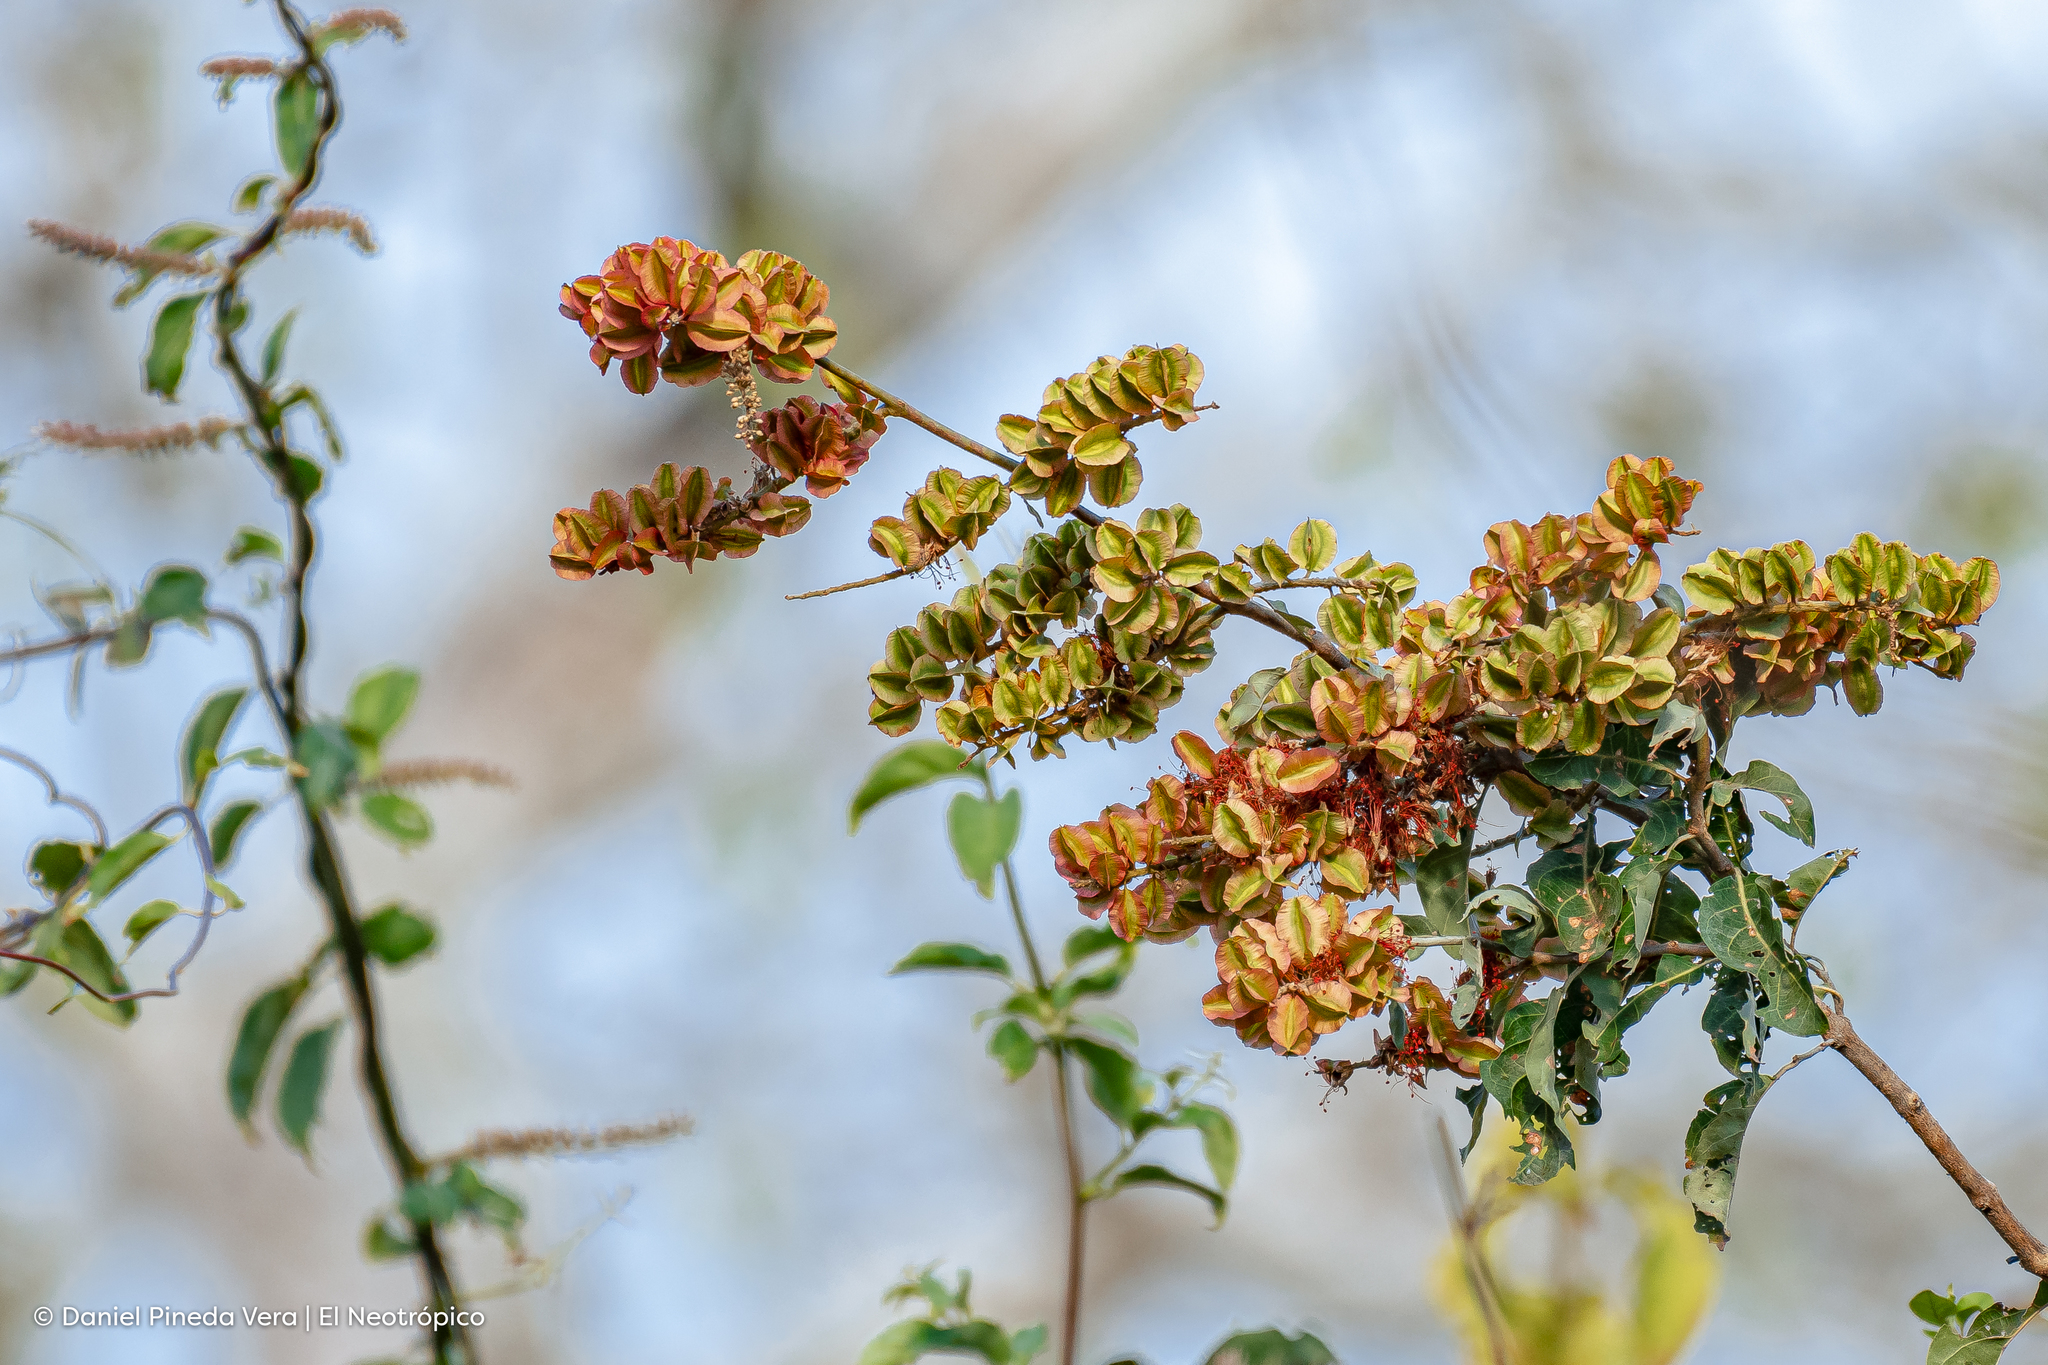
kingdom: Plantae
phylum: Tracheophyta
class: Magnoliopsida
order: Myrtales
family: Combretaceae
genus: Combretum
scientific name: Combretum farinosum
